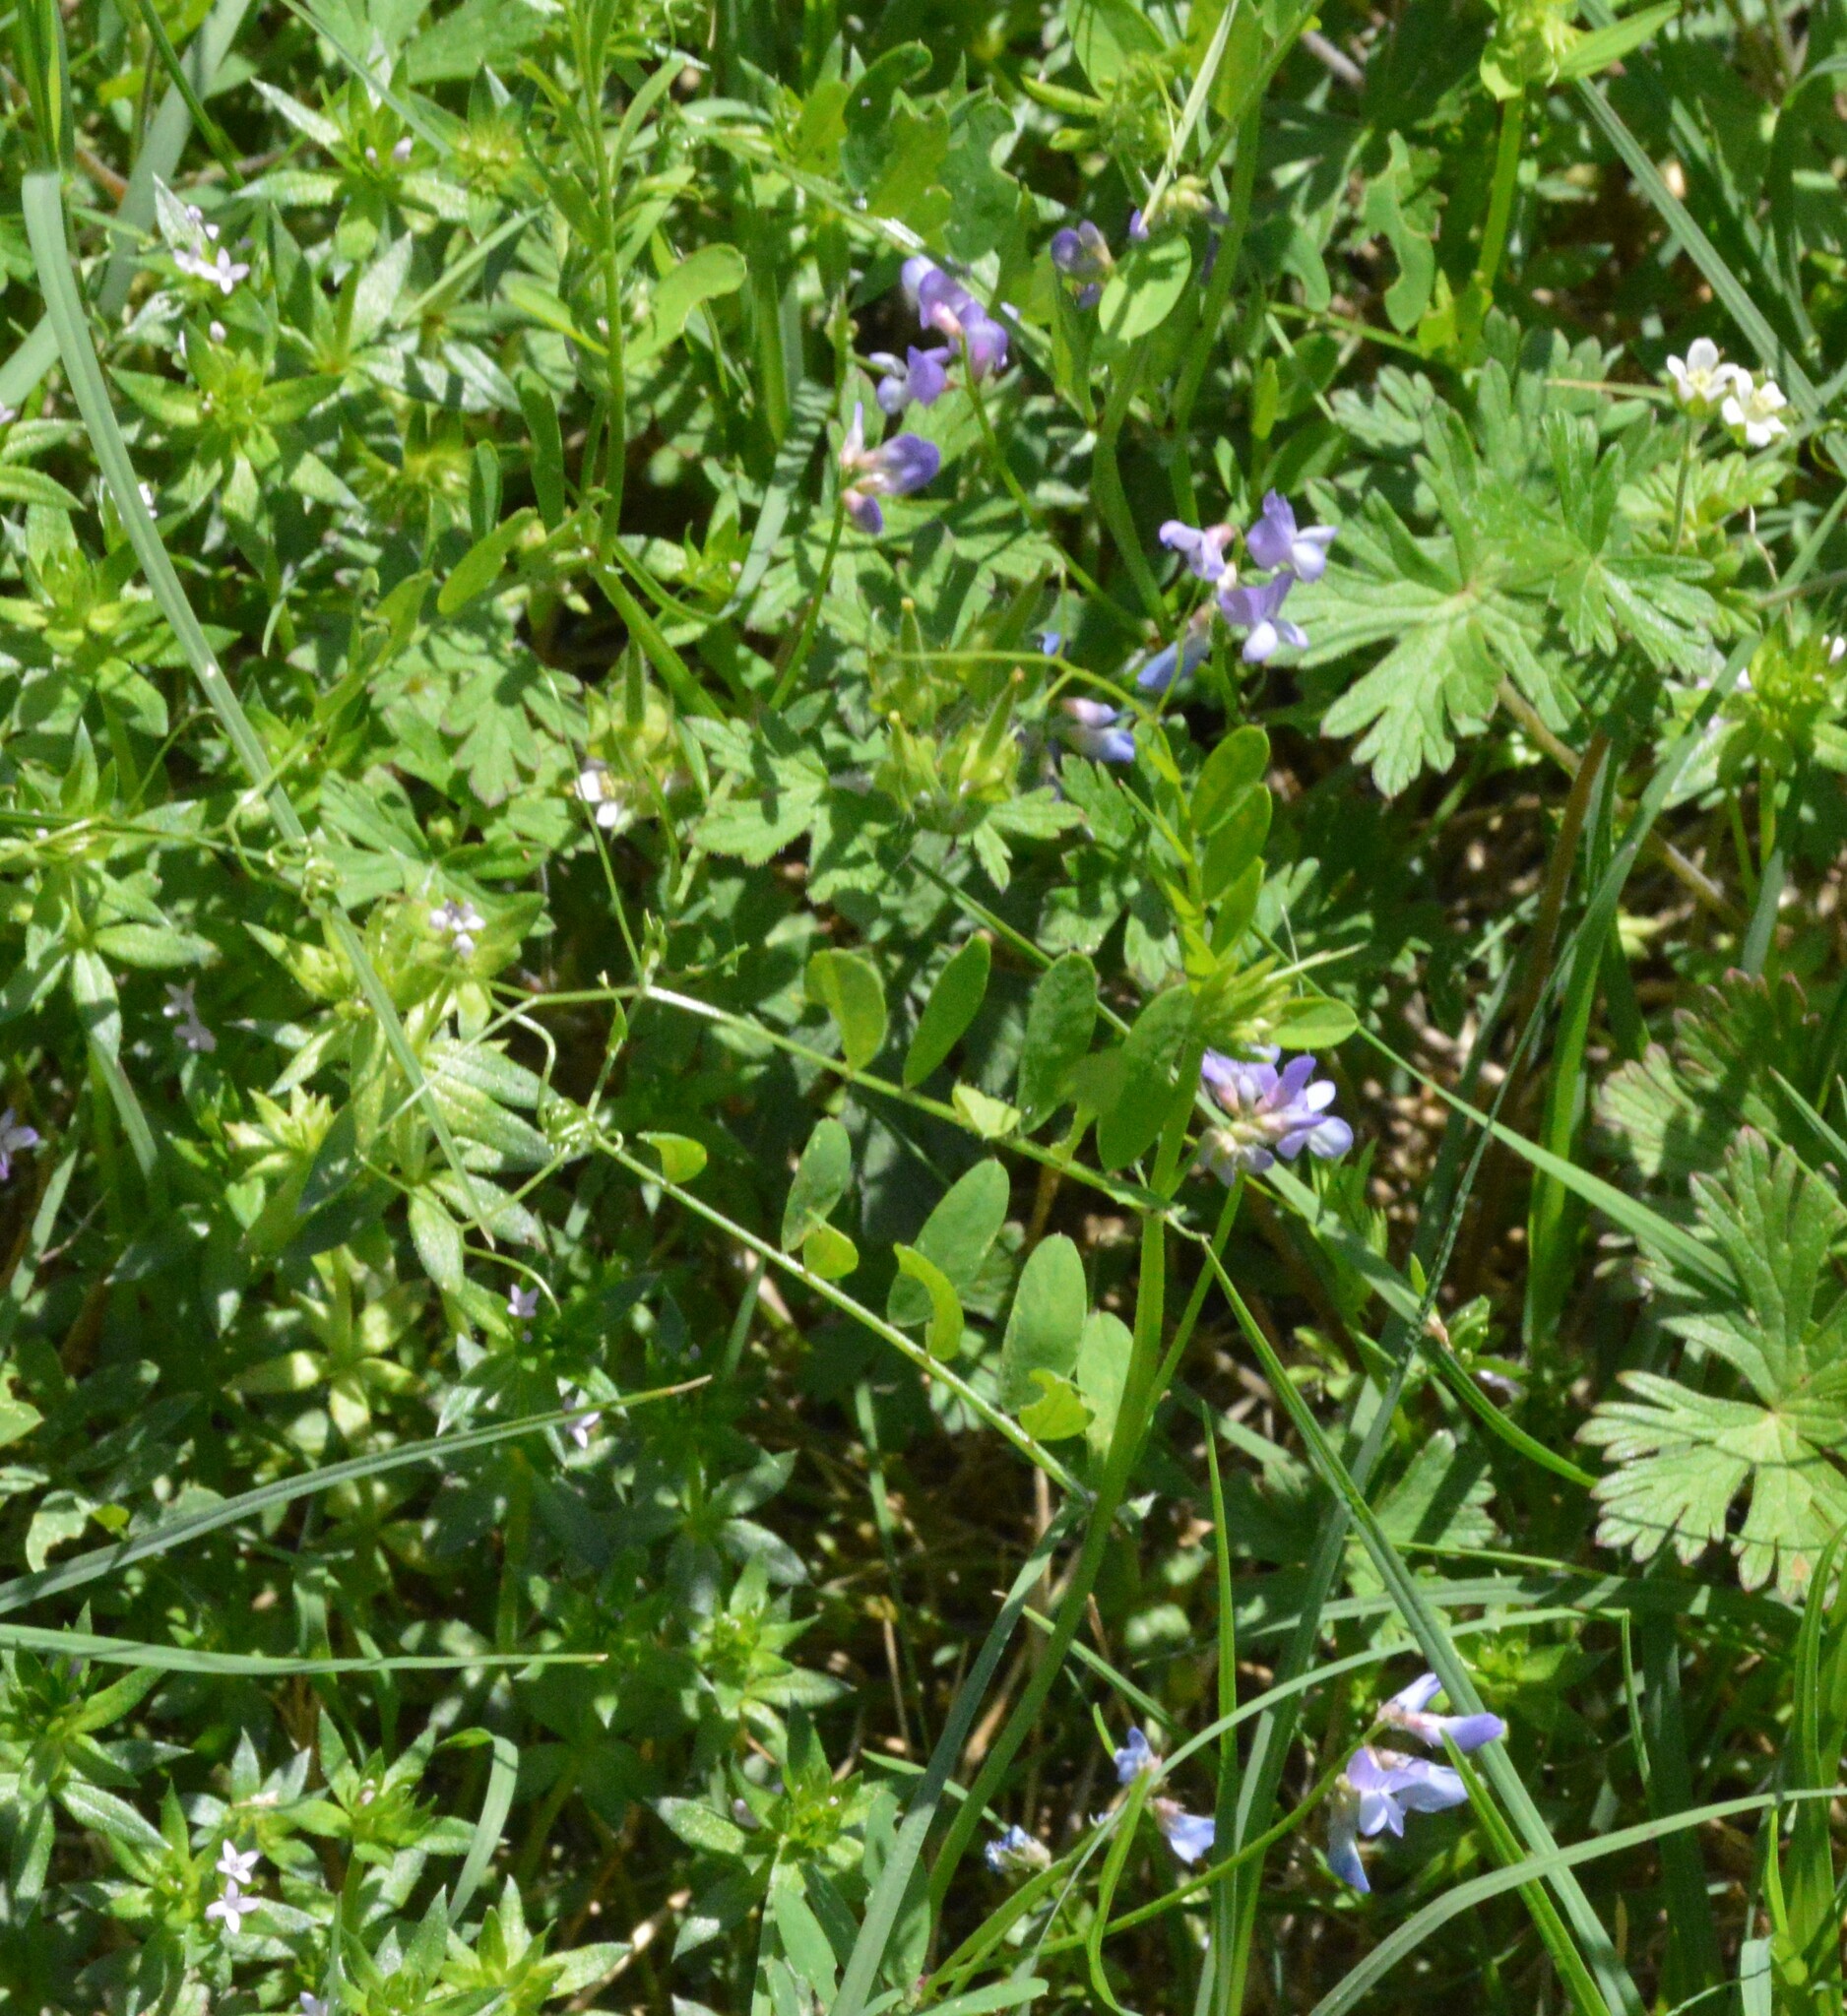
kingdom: Plantae
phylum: Tracheophyta
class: Magnoliopsida
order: Fabales
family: Fabaceae
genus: Vicia
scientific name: Vicia ludoviciana
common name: Louisiana vetch
